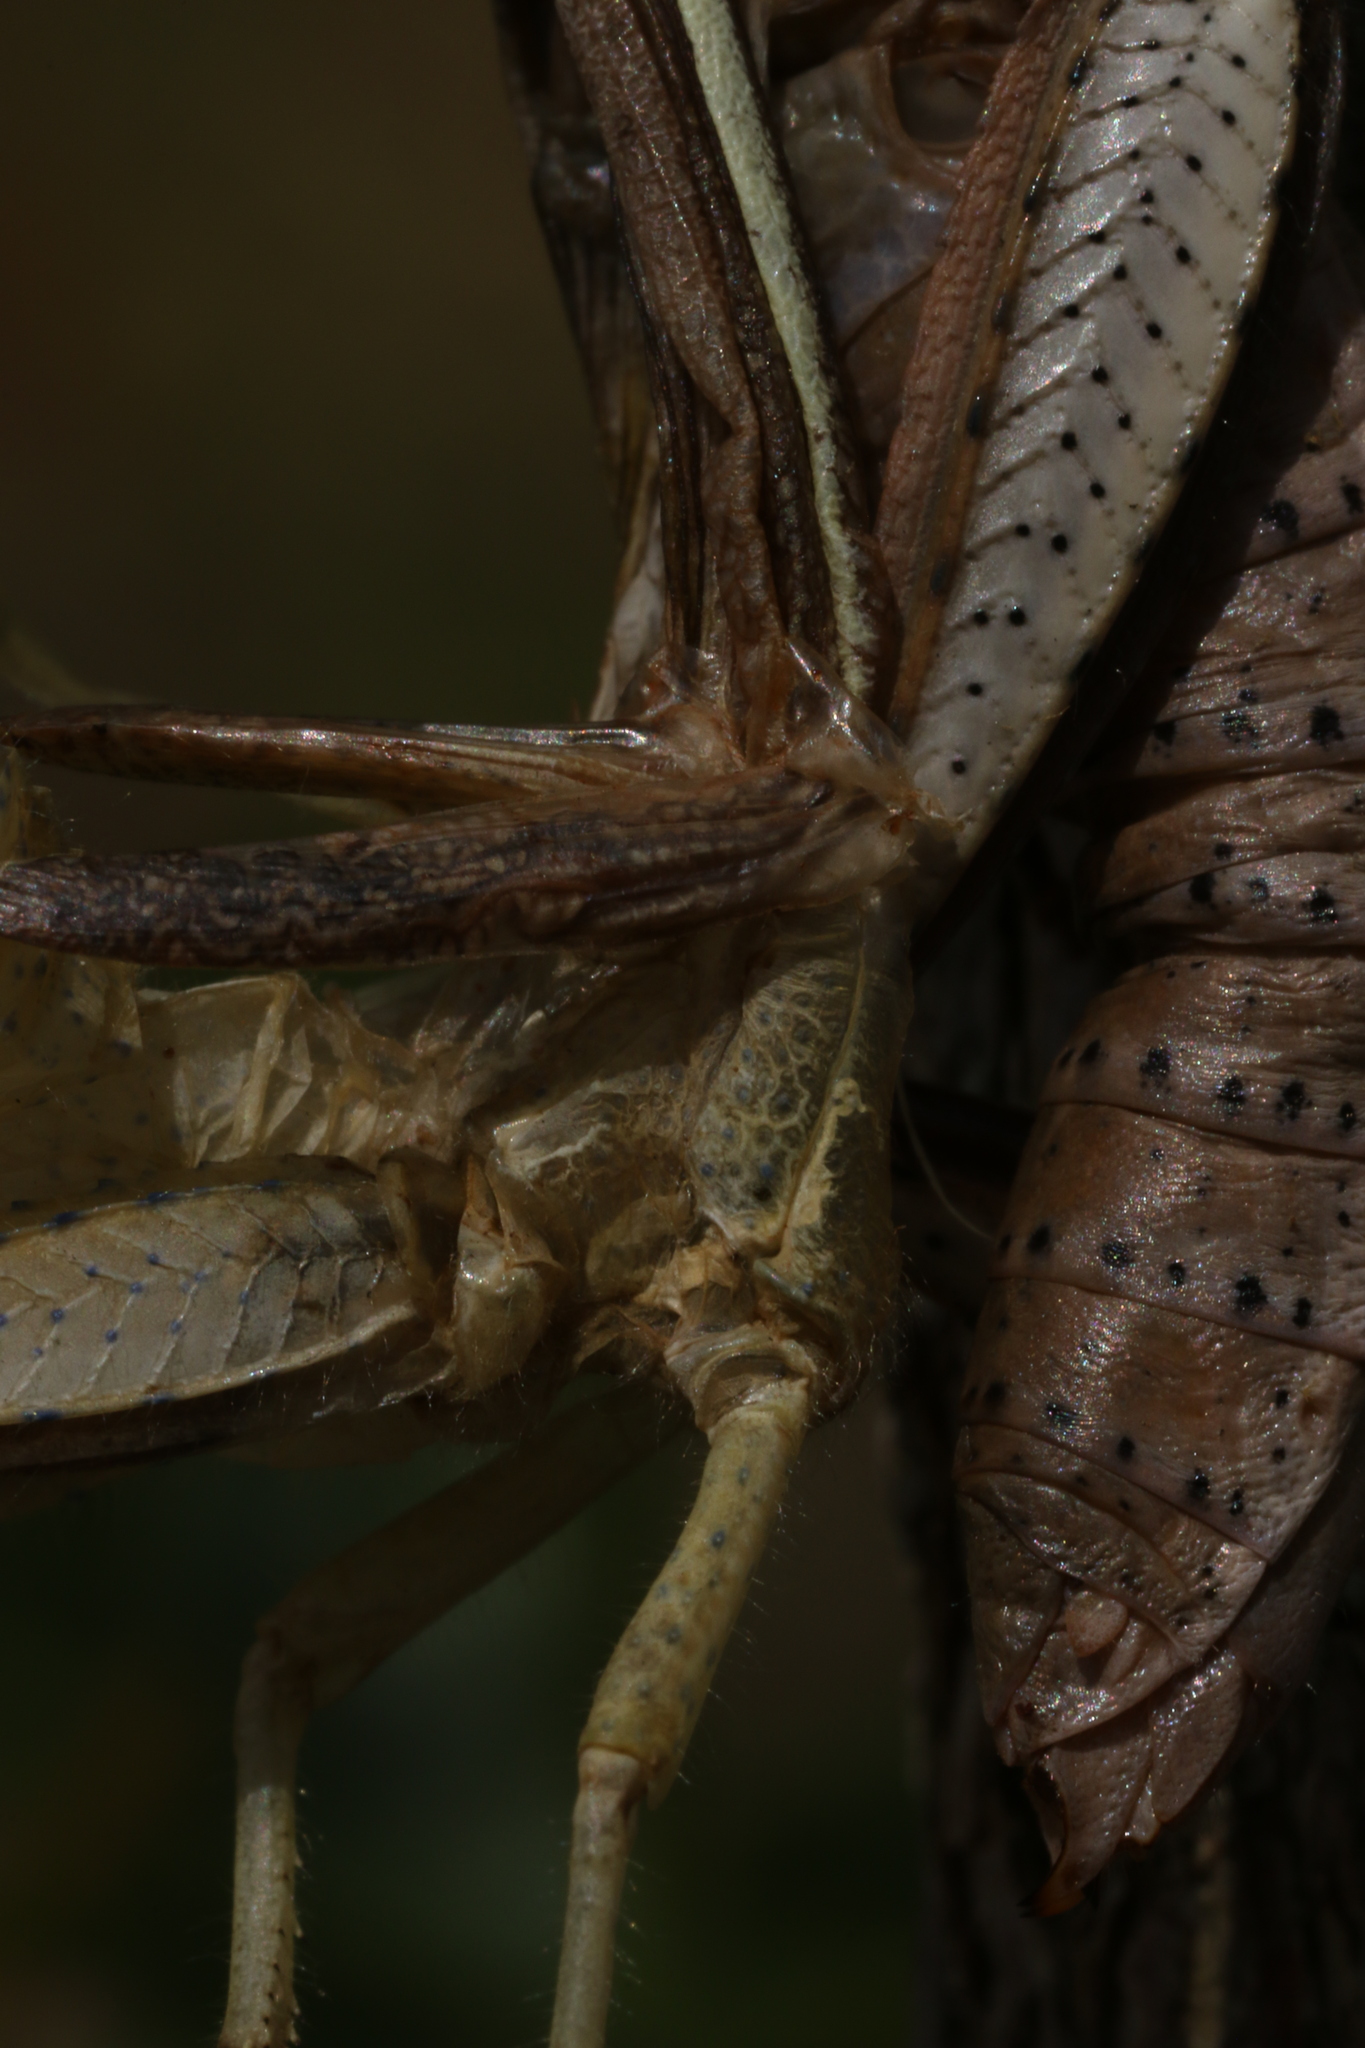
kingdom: Animalia
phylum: Arthropoda
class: Insecta
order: Orthoptera
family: Acrididae
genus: Schistocerca
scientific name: Schistocerca flavofasciata
